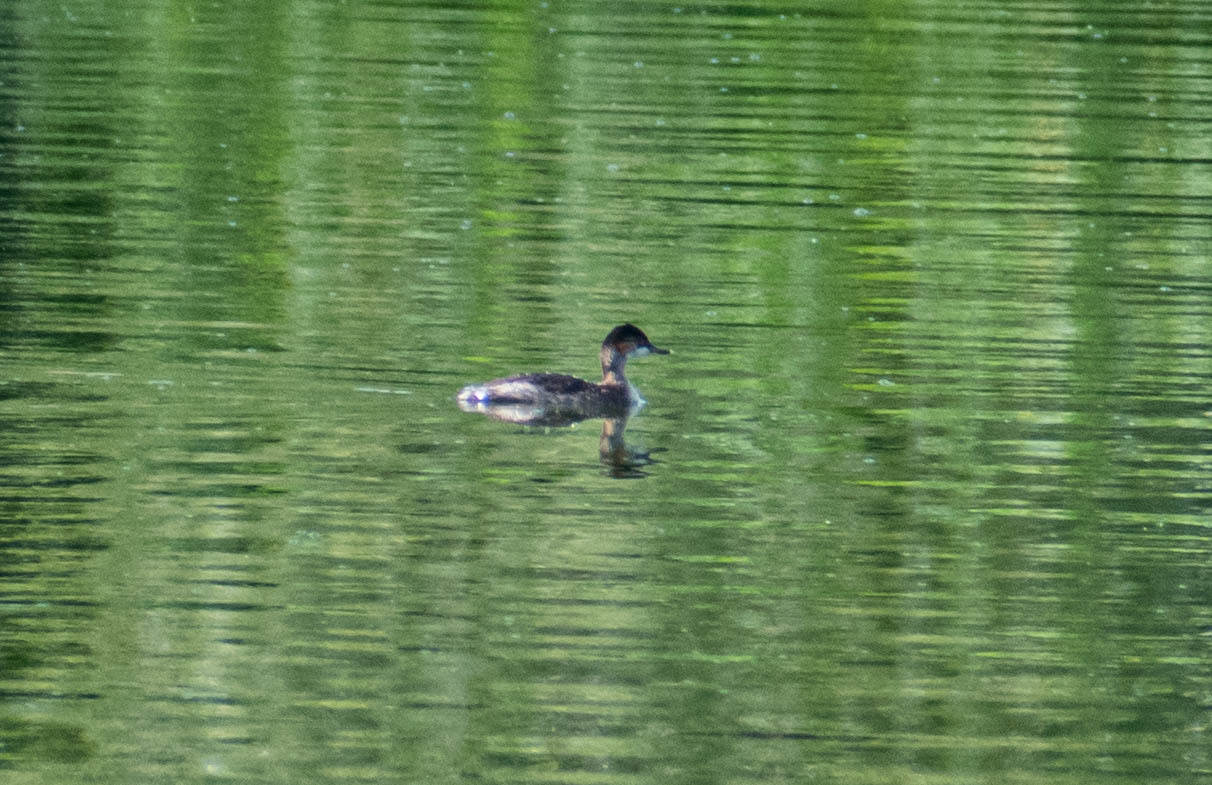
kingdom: Animalia
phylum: Chordata
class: Aves
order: Podicipediformes
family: Podicipedidae
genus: Podiceps
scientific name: Podiceps nigricollis
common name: Black-necked grebe
